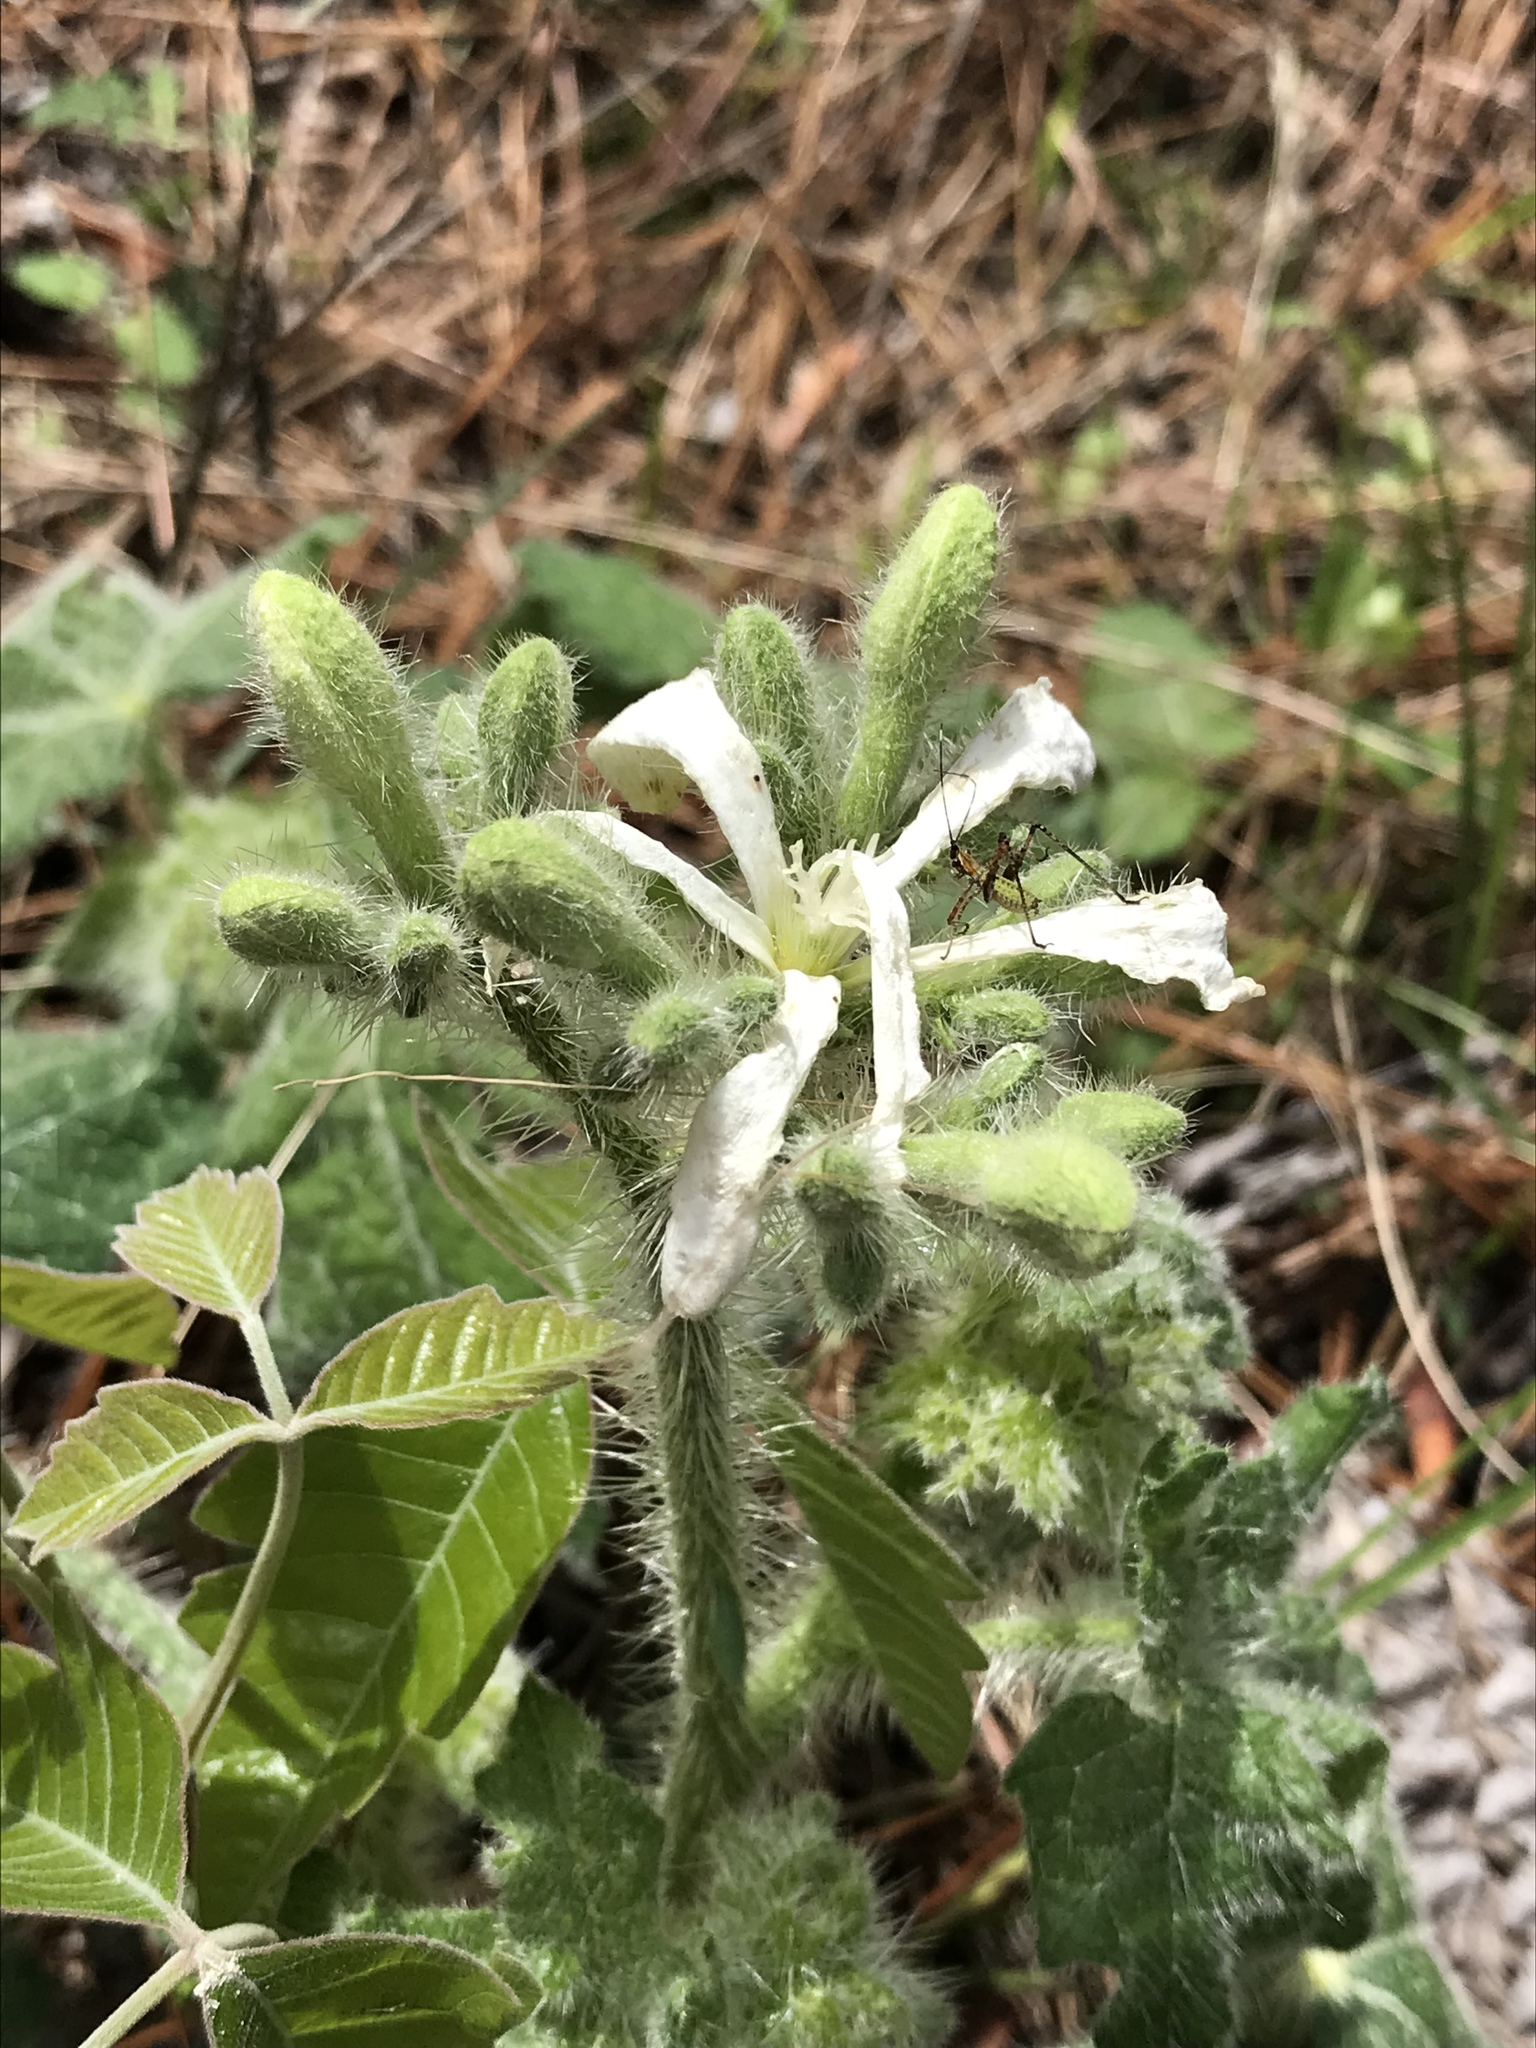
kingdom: Plantae
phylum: Tracheophyta
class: Magnoliopsida
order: Malpighiales
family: Euphorbiaceae
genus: Cnidoscolus
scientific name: Cnidoscolus texanus
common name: Texas bull-nettle
